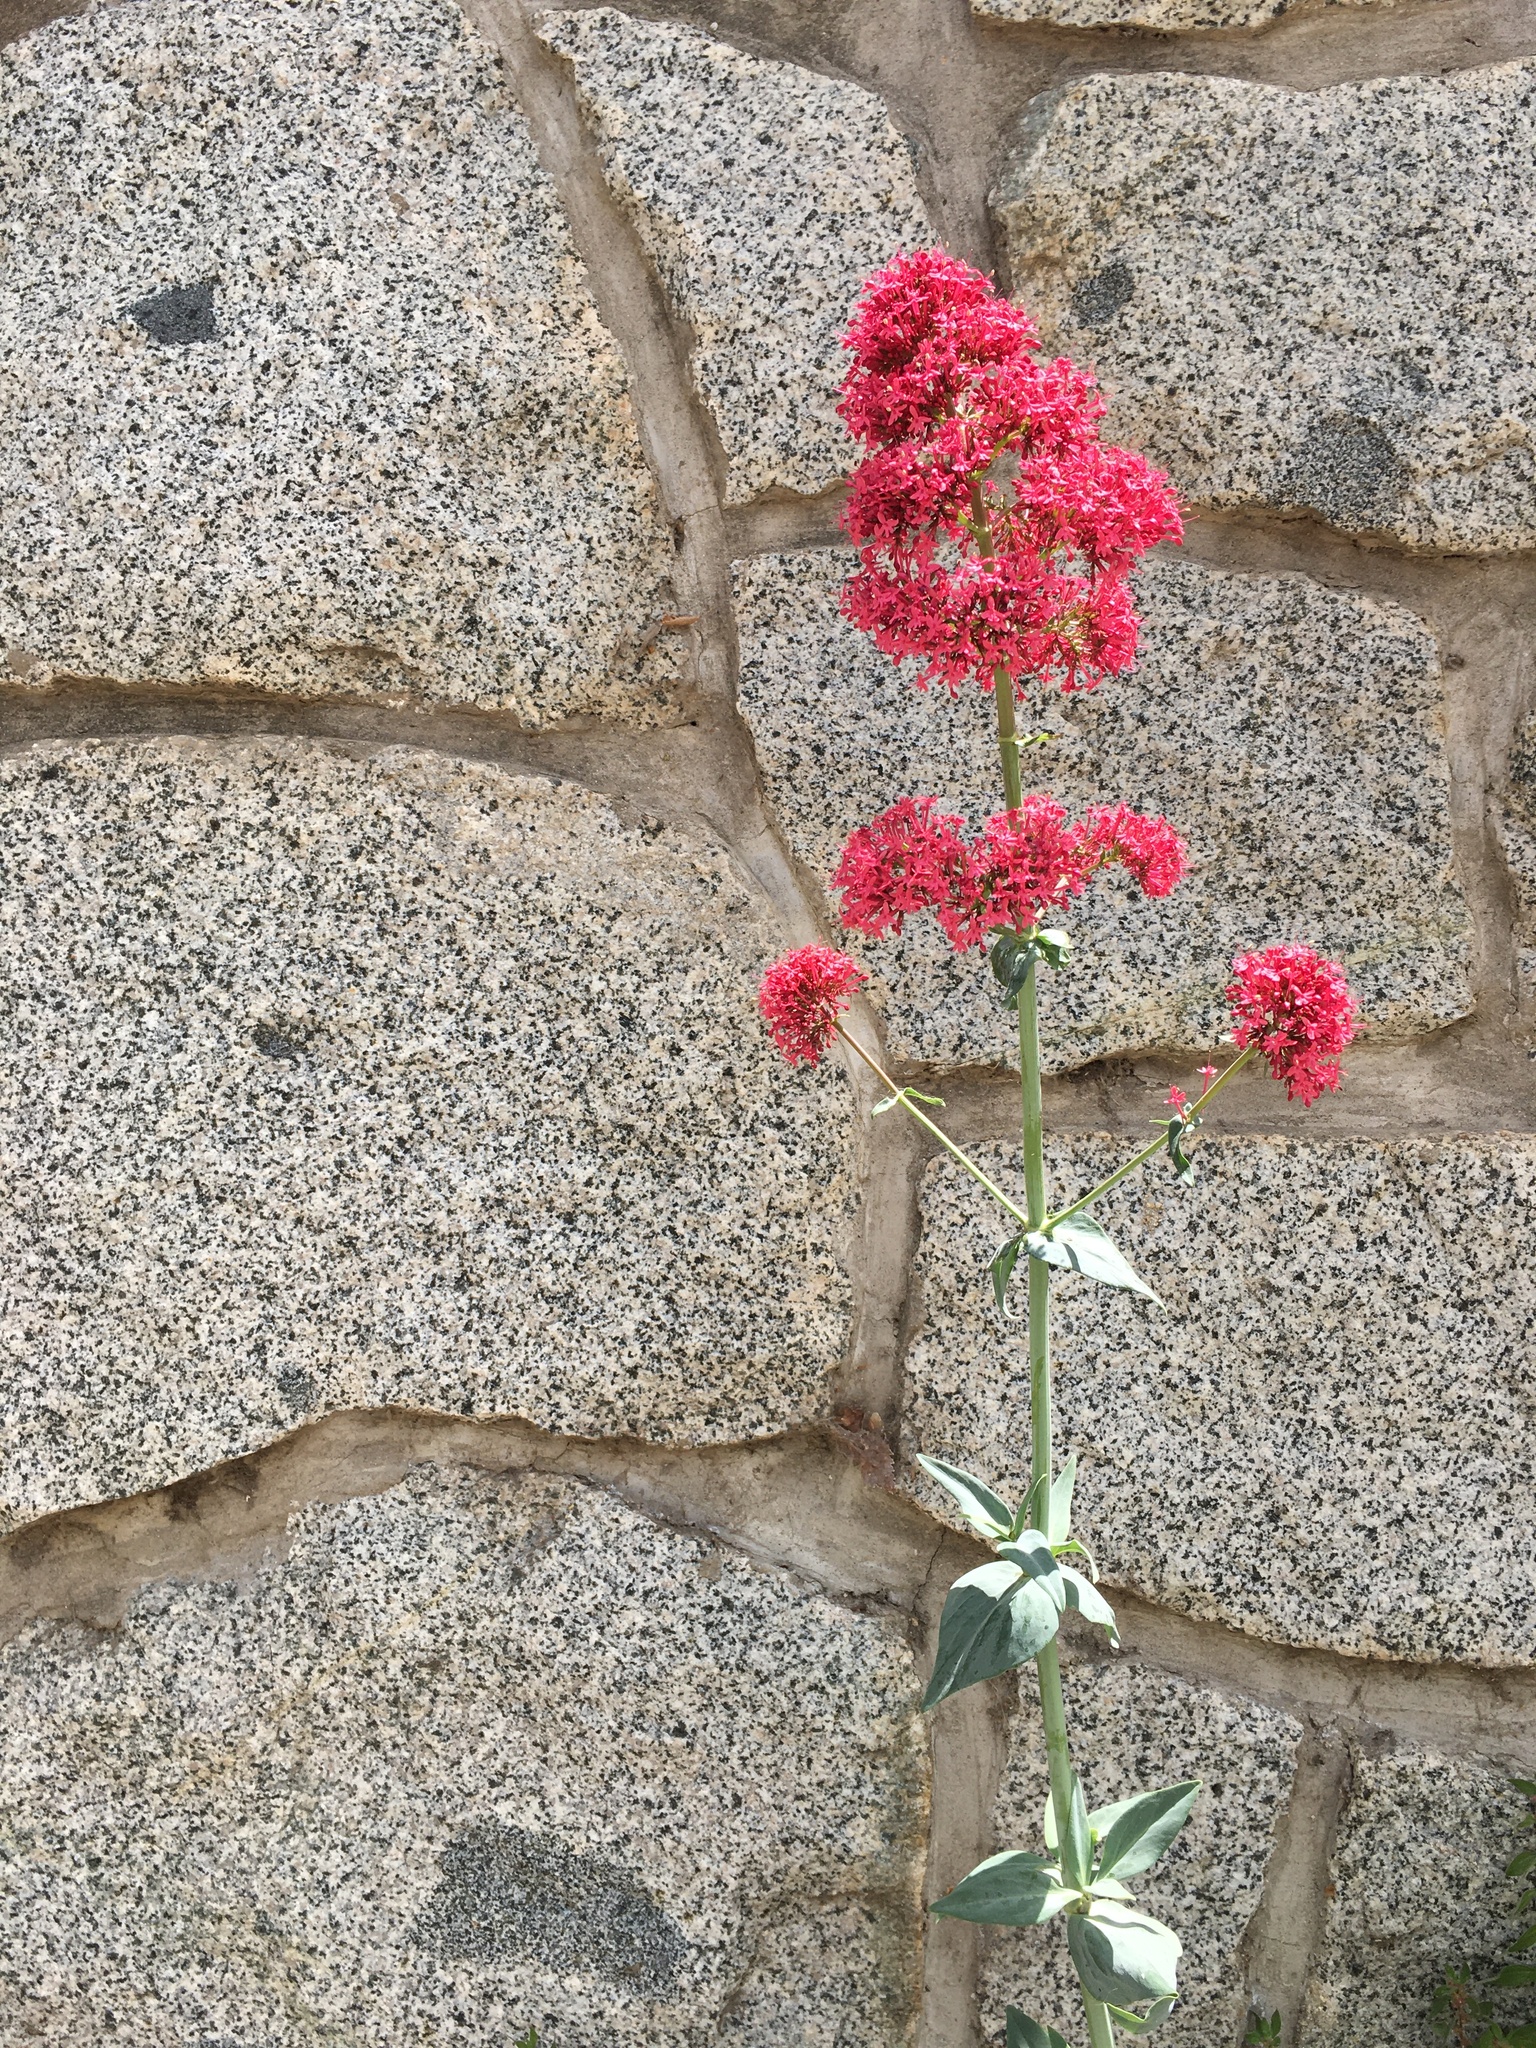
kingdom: Plantae
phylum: Tracheophyta
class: Magnoliopsida
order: Dipsacales
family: Caprifoliaceae
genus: Centranthus
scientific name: Centranthus ruber
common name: Red valerian
